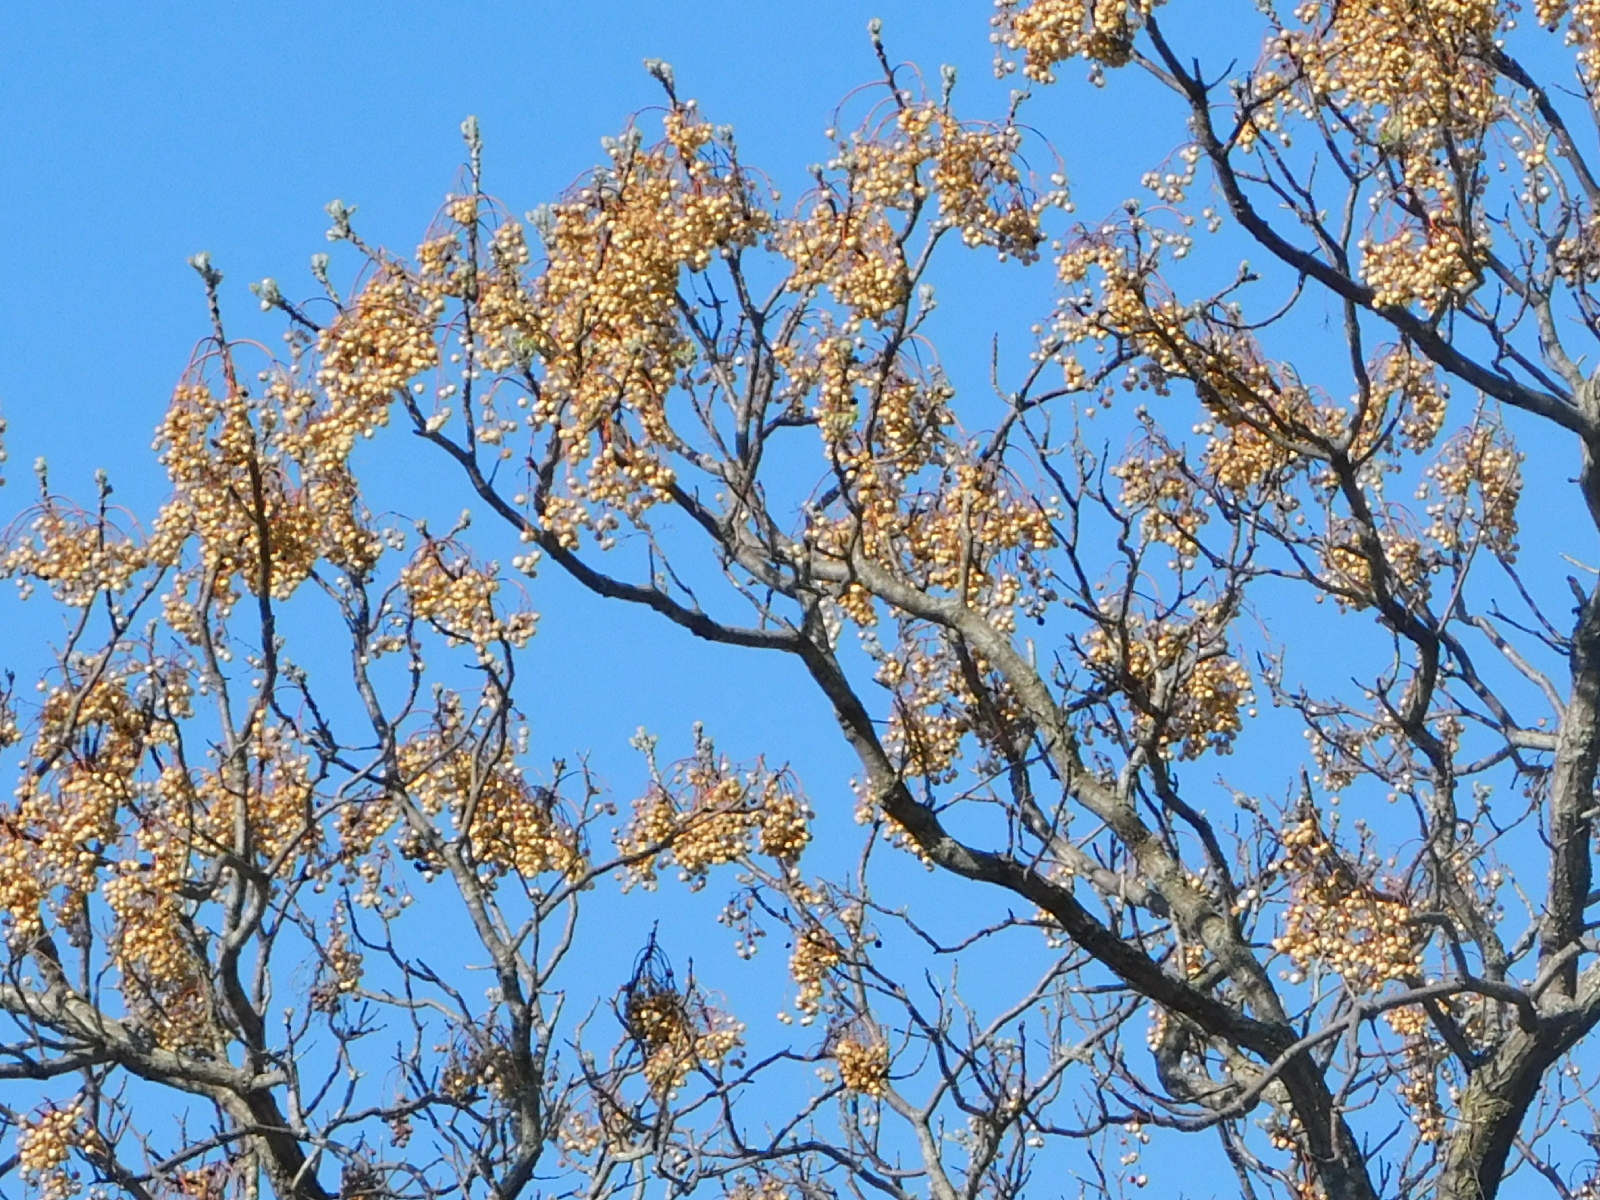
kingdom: Plantae
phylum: Tracheophyta
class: Magnoliopsida
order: Sapindales
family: Meliaceae
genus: Melia
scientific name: Melia azedarach
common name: Chinaberrytree
